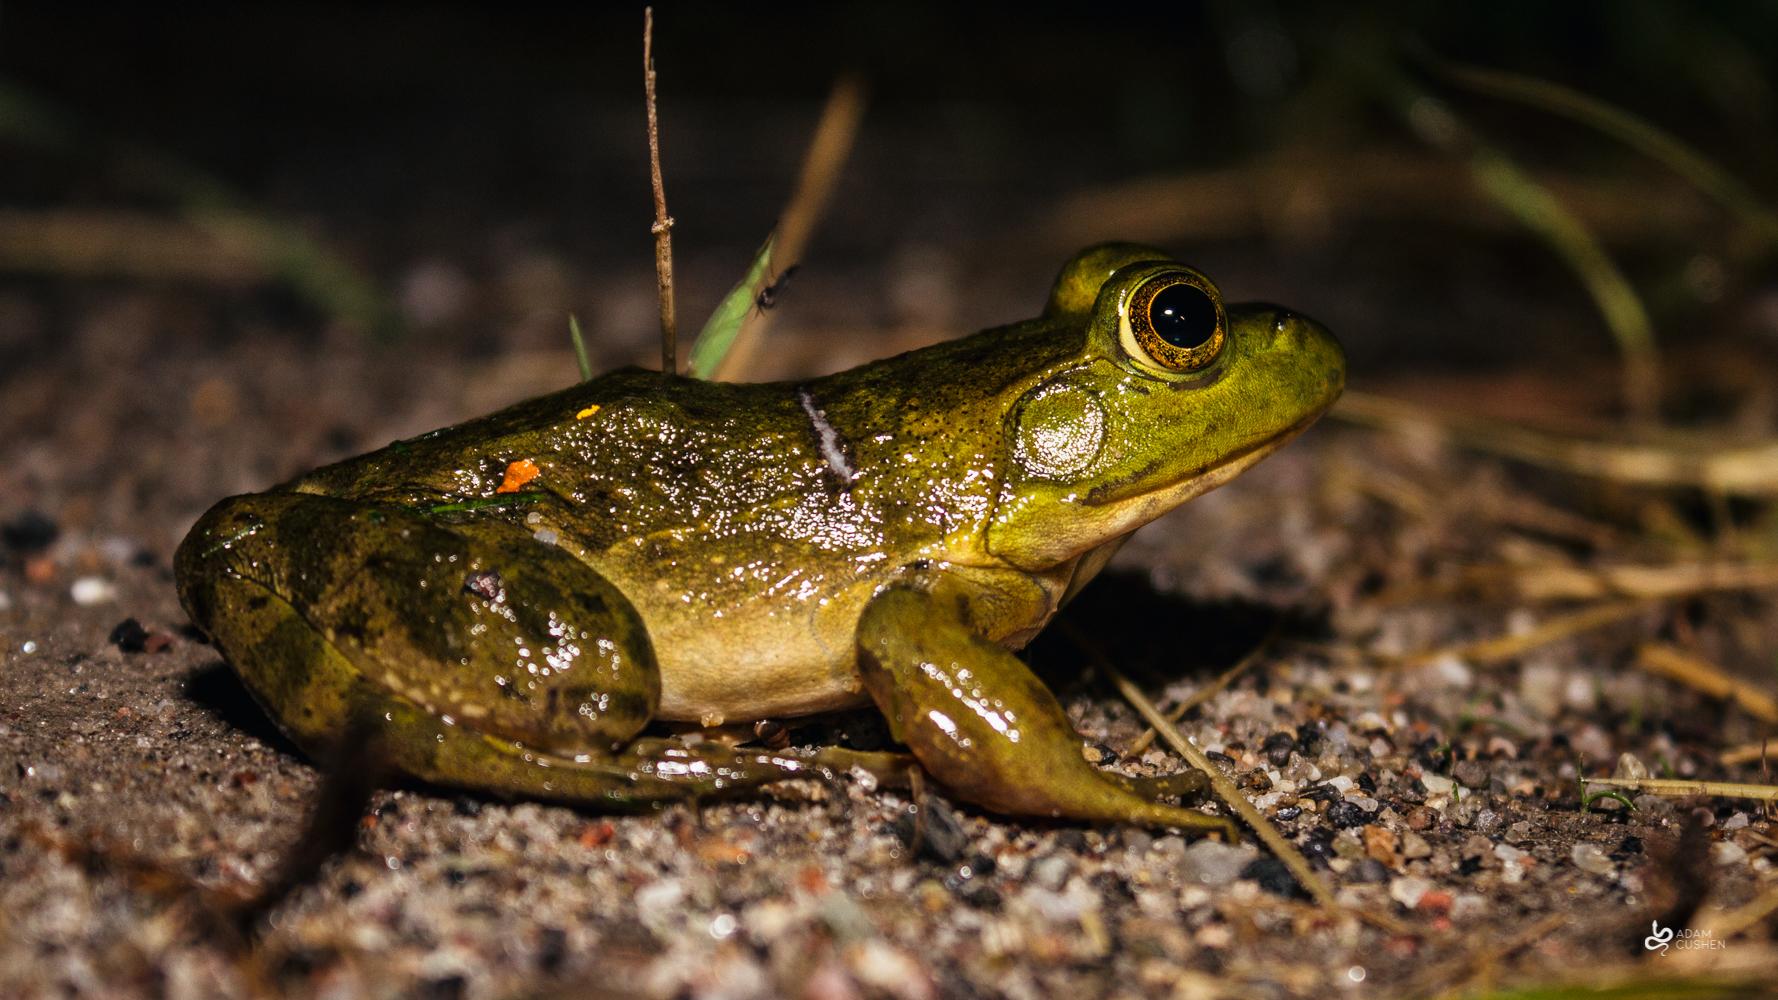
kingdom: Animalia
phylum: Chordata
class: Amphibia
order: Anura
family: Ranidae
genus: Lithobates
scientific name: Lithobates catesbeianus
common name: American bullfrog
